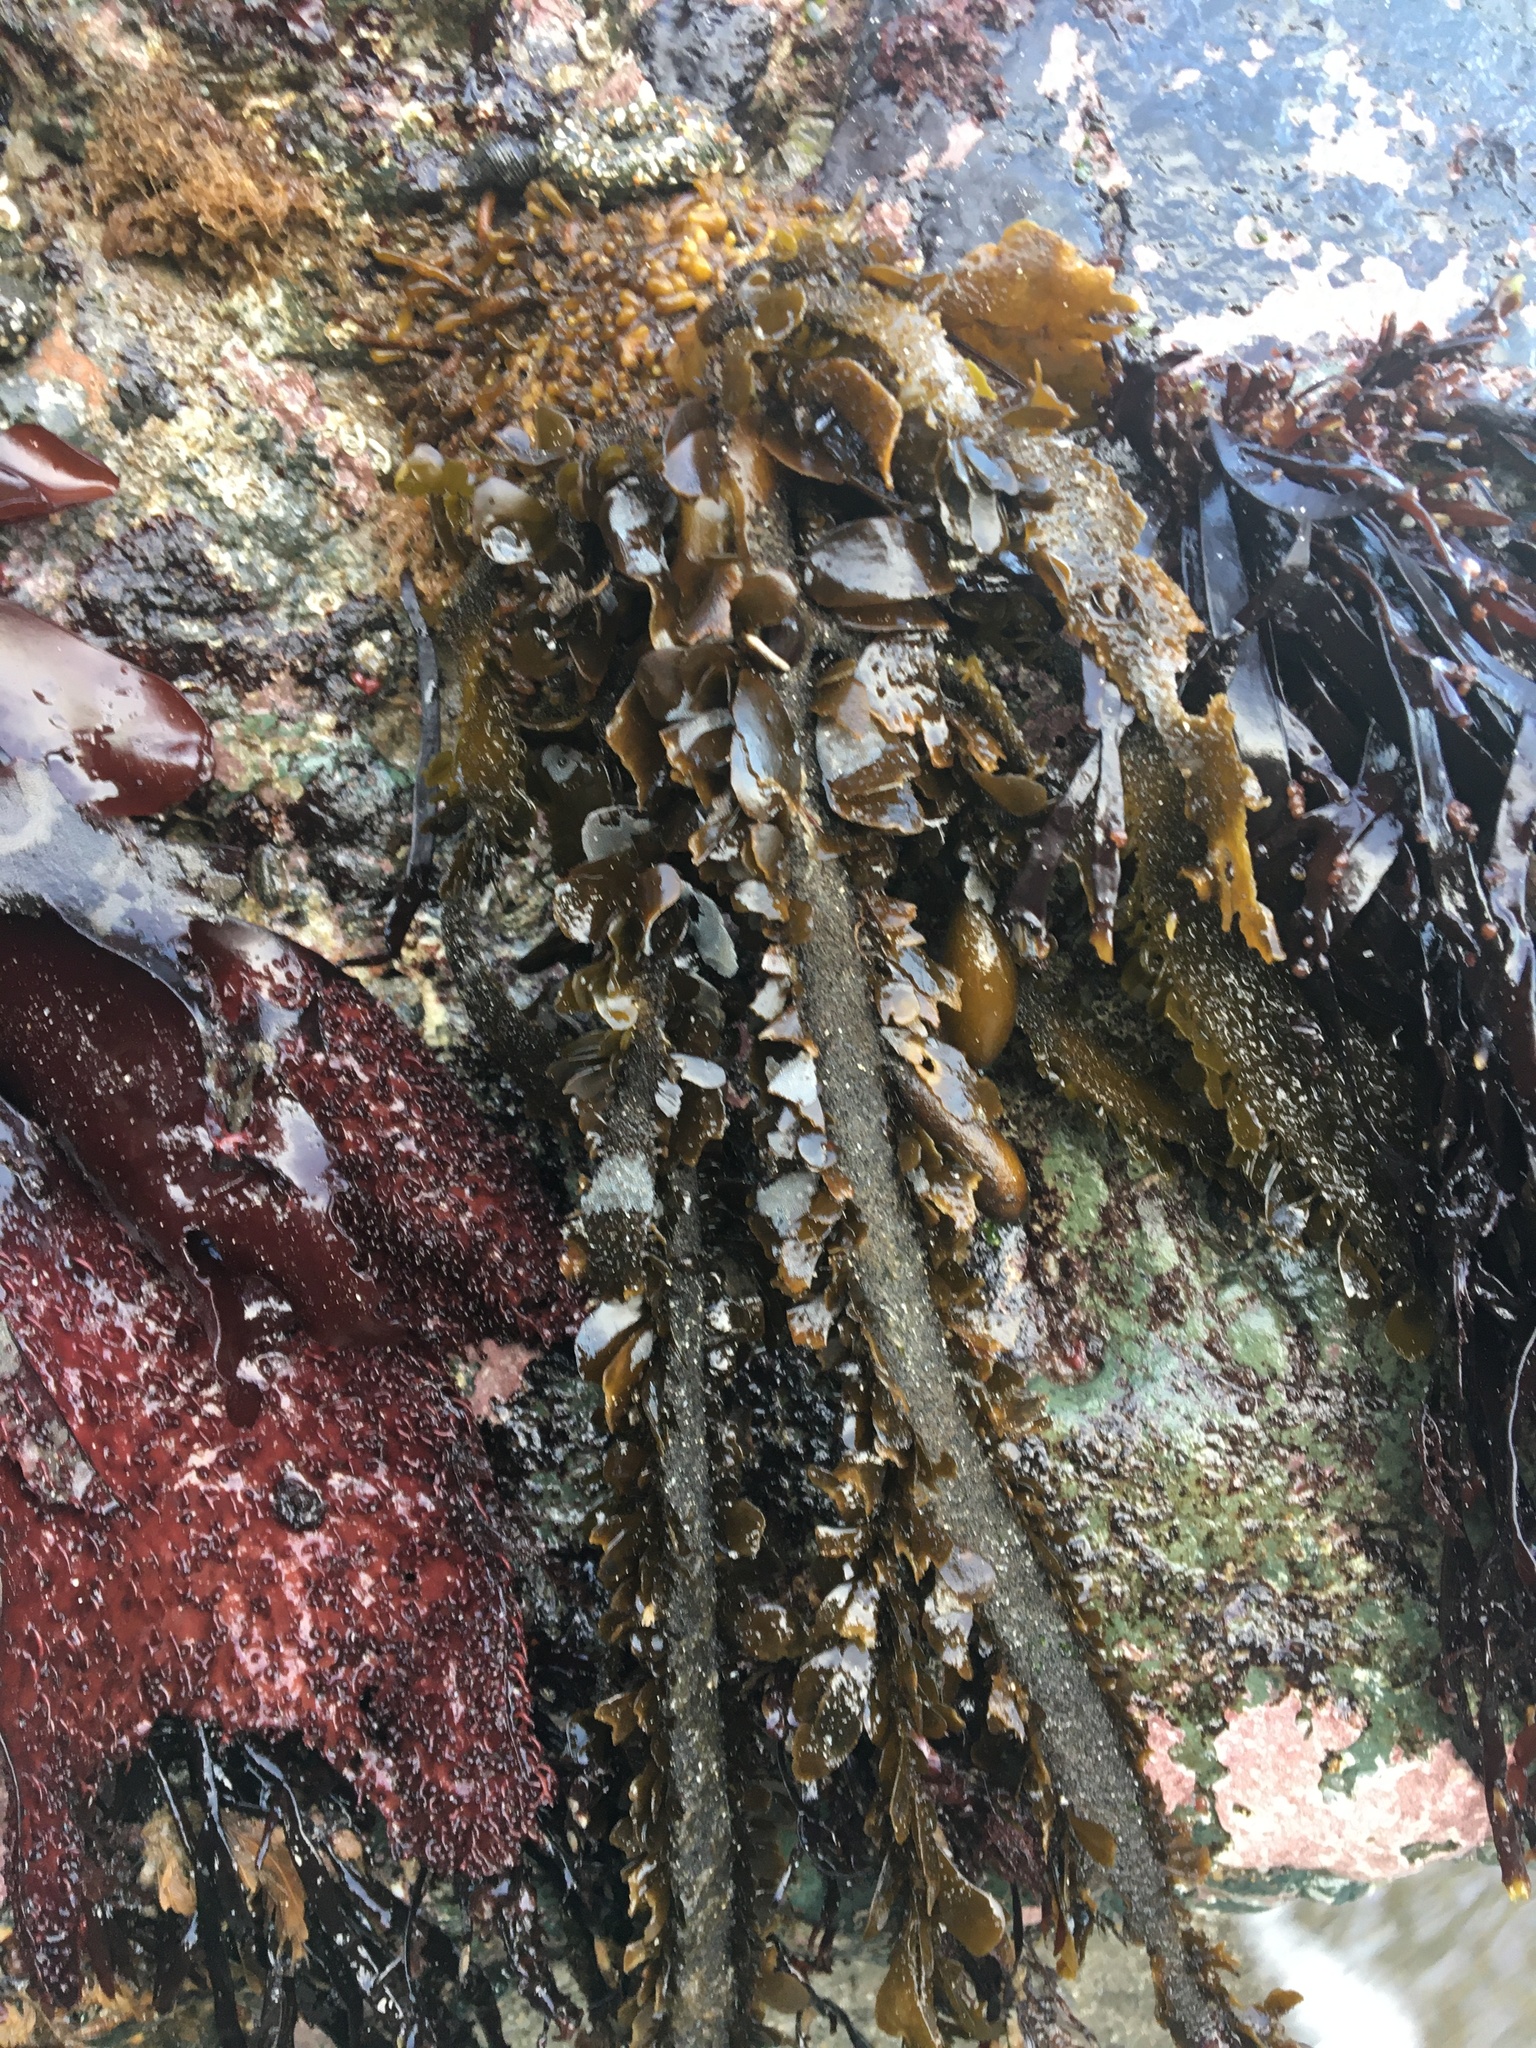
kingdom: Chromista
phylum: Ochrophyta
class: Phaeophyceae
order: Laminariales
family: Lessoniaceae
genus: Egregia
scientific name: Egregia menziesii
